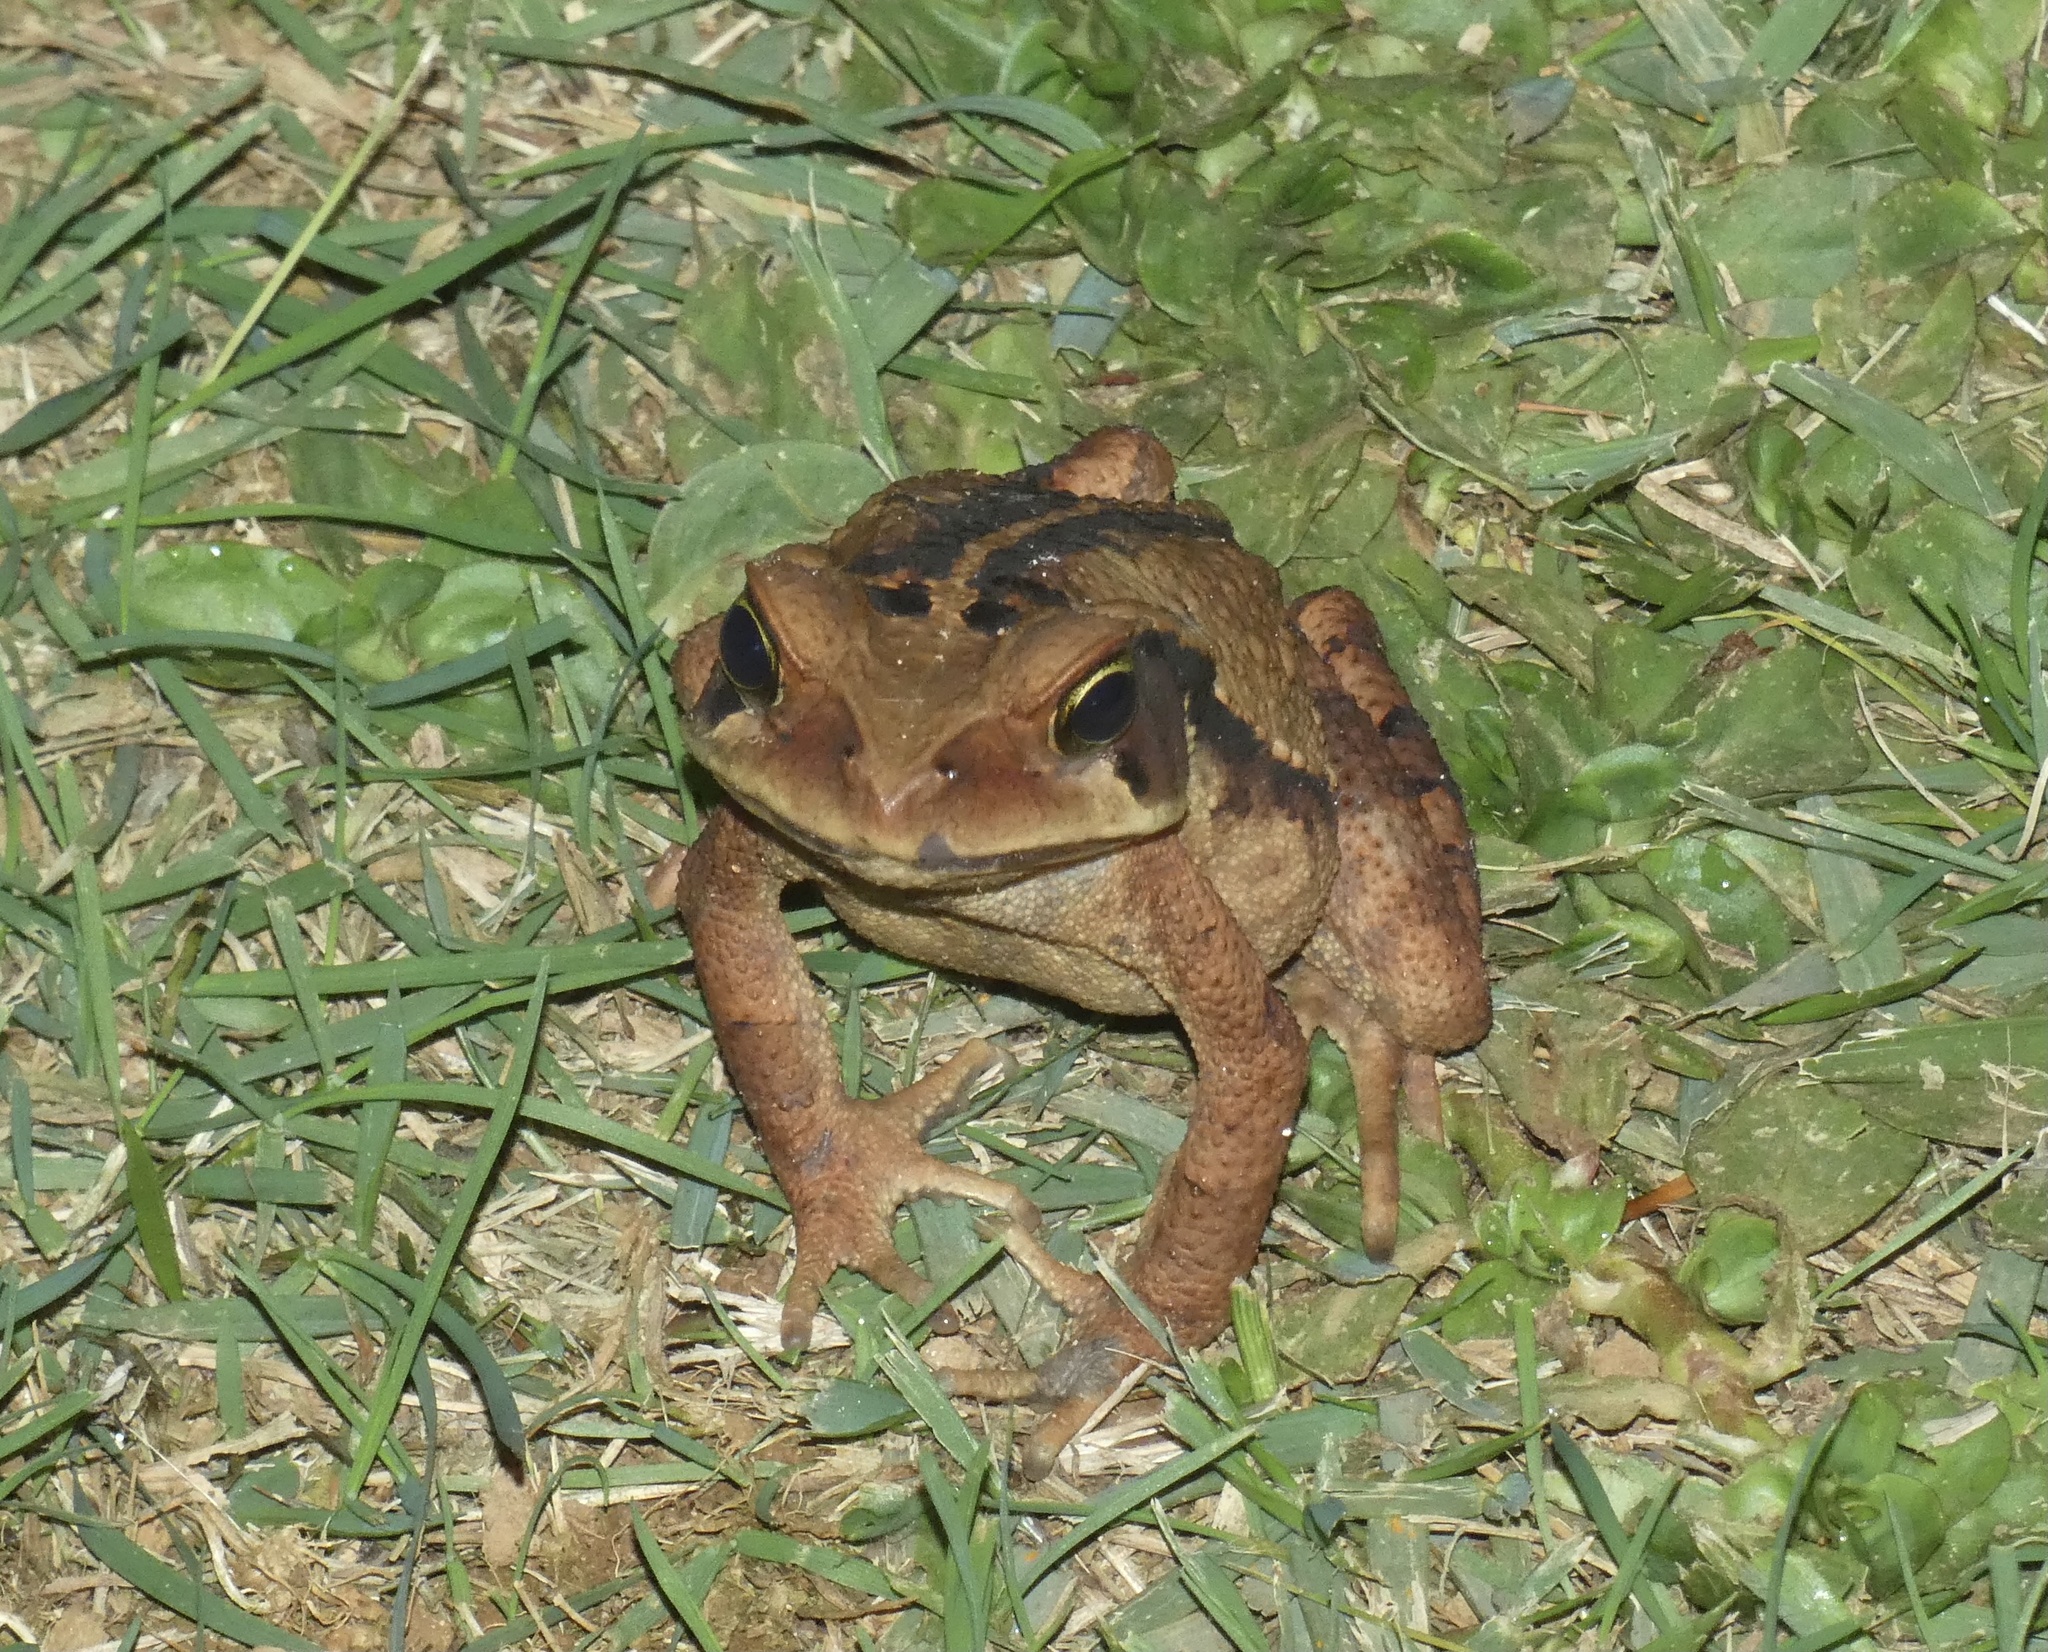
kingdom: Animalia
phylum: Chordata
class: Amphibia
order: Anura
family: Bufonidae
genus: Rhinella
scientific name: Rhinella ornata
